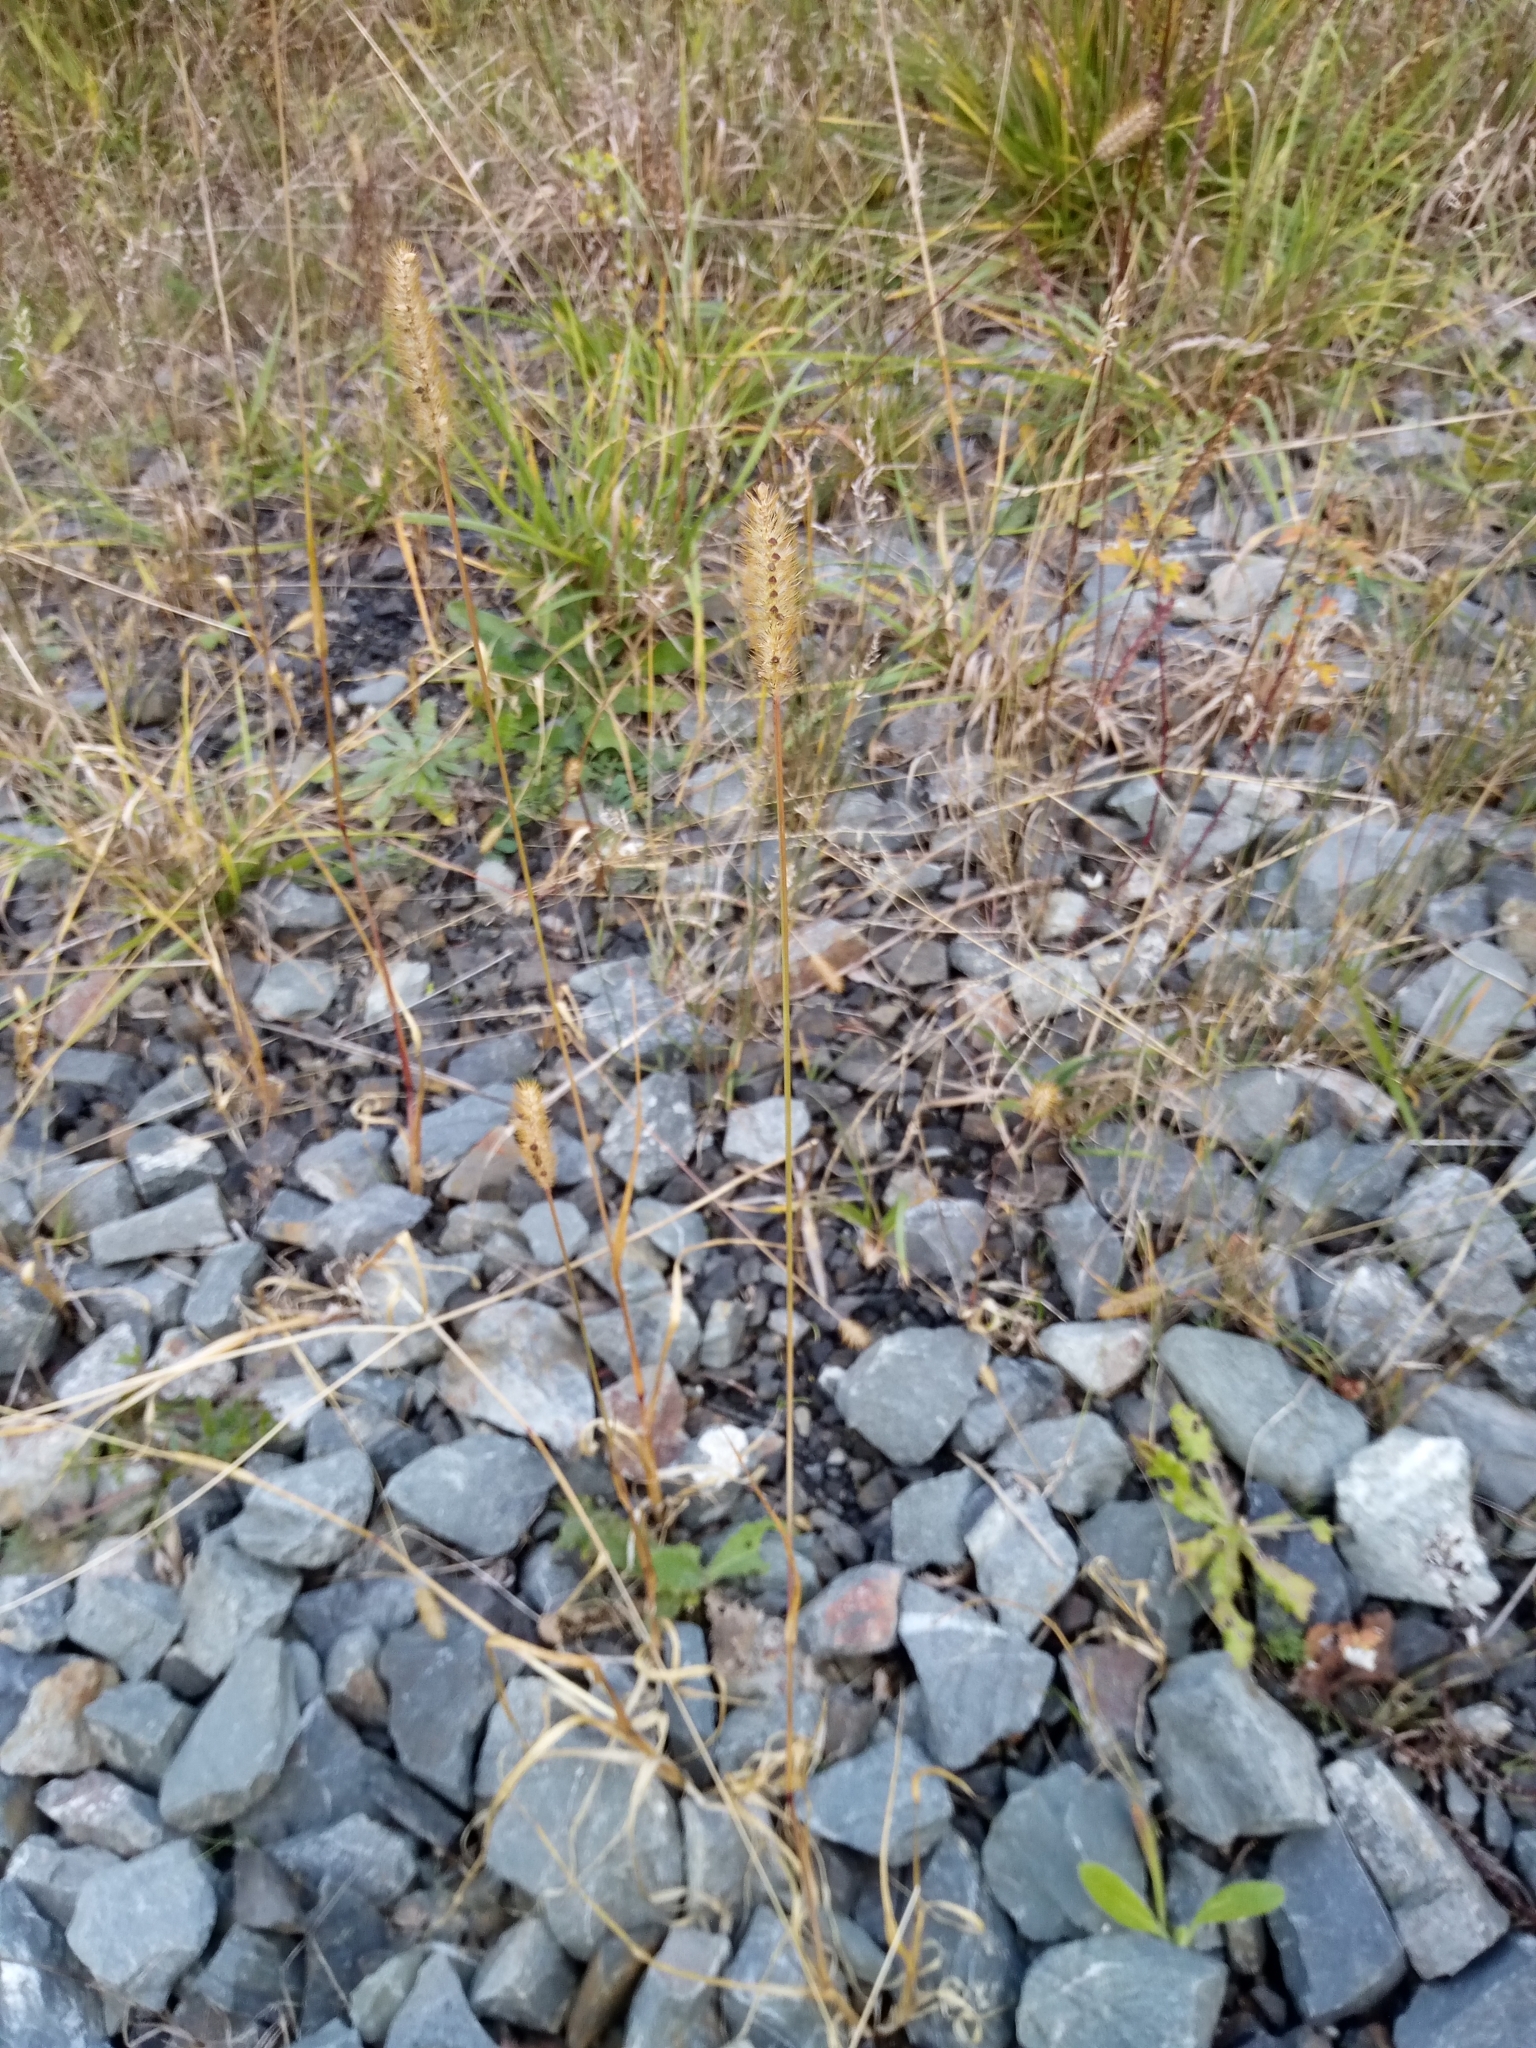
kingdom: Plantae
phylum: Tracheophyta
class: Liliopsida
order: Poales
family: Poaceae
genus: Setaria
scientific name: Setaria pumila
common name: Yellow bristle-grass
